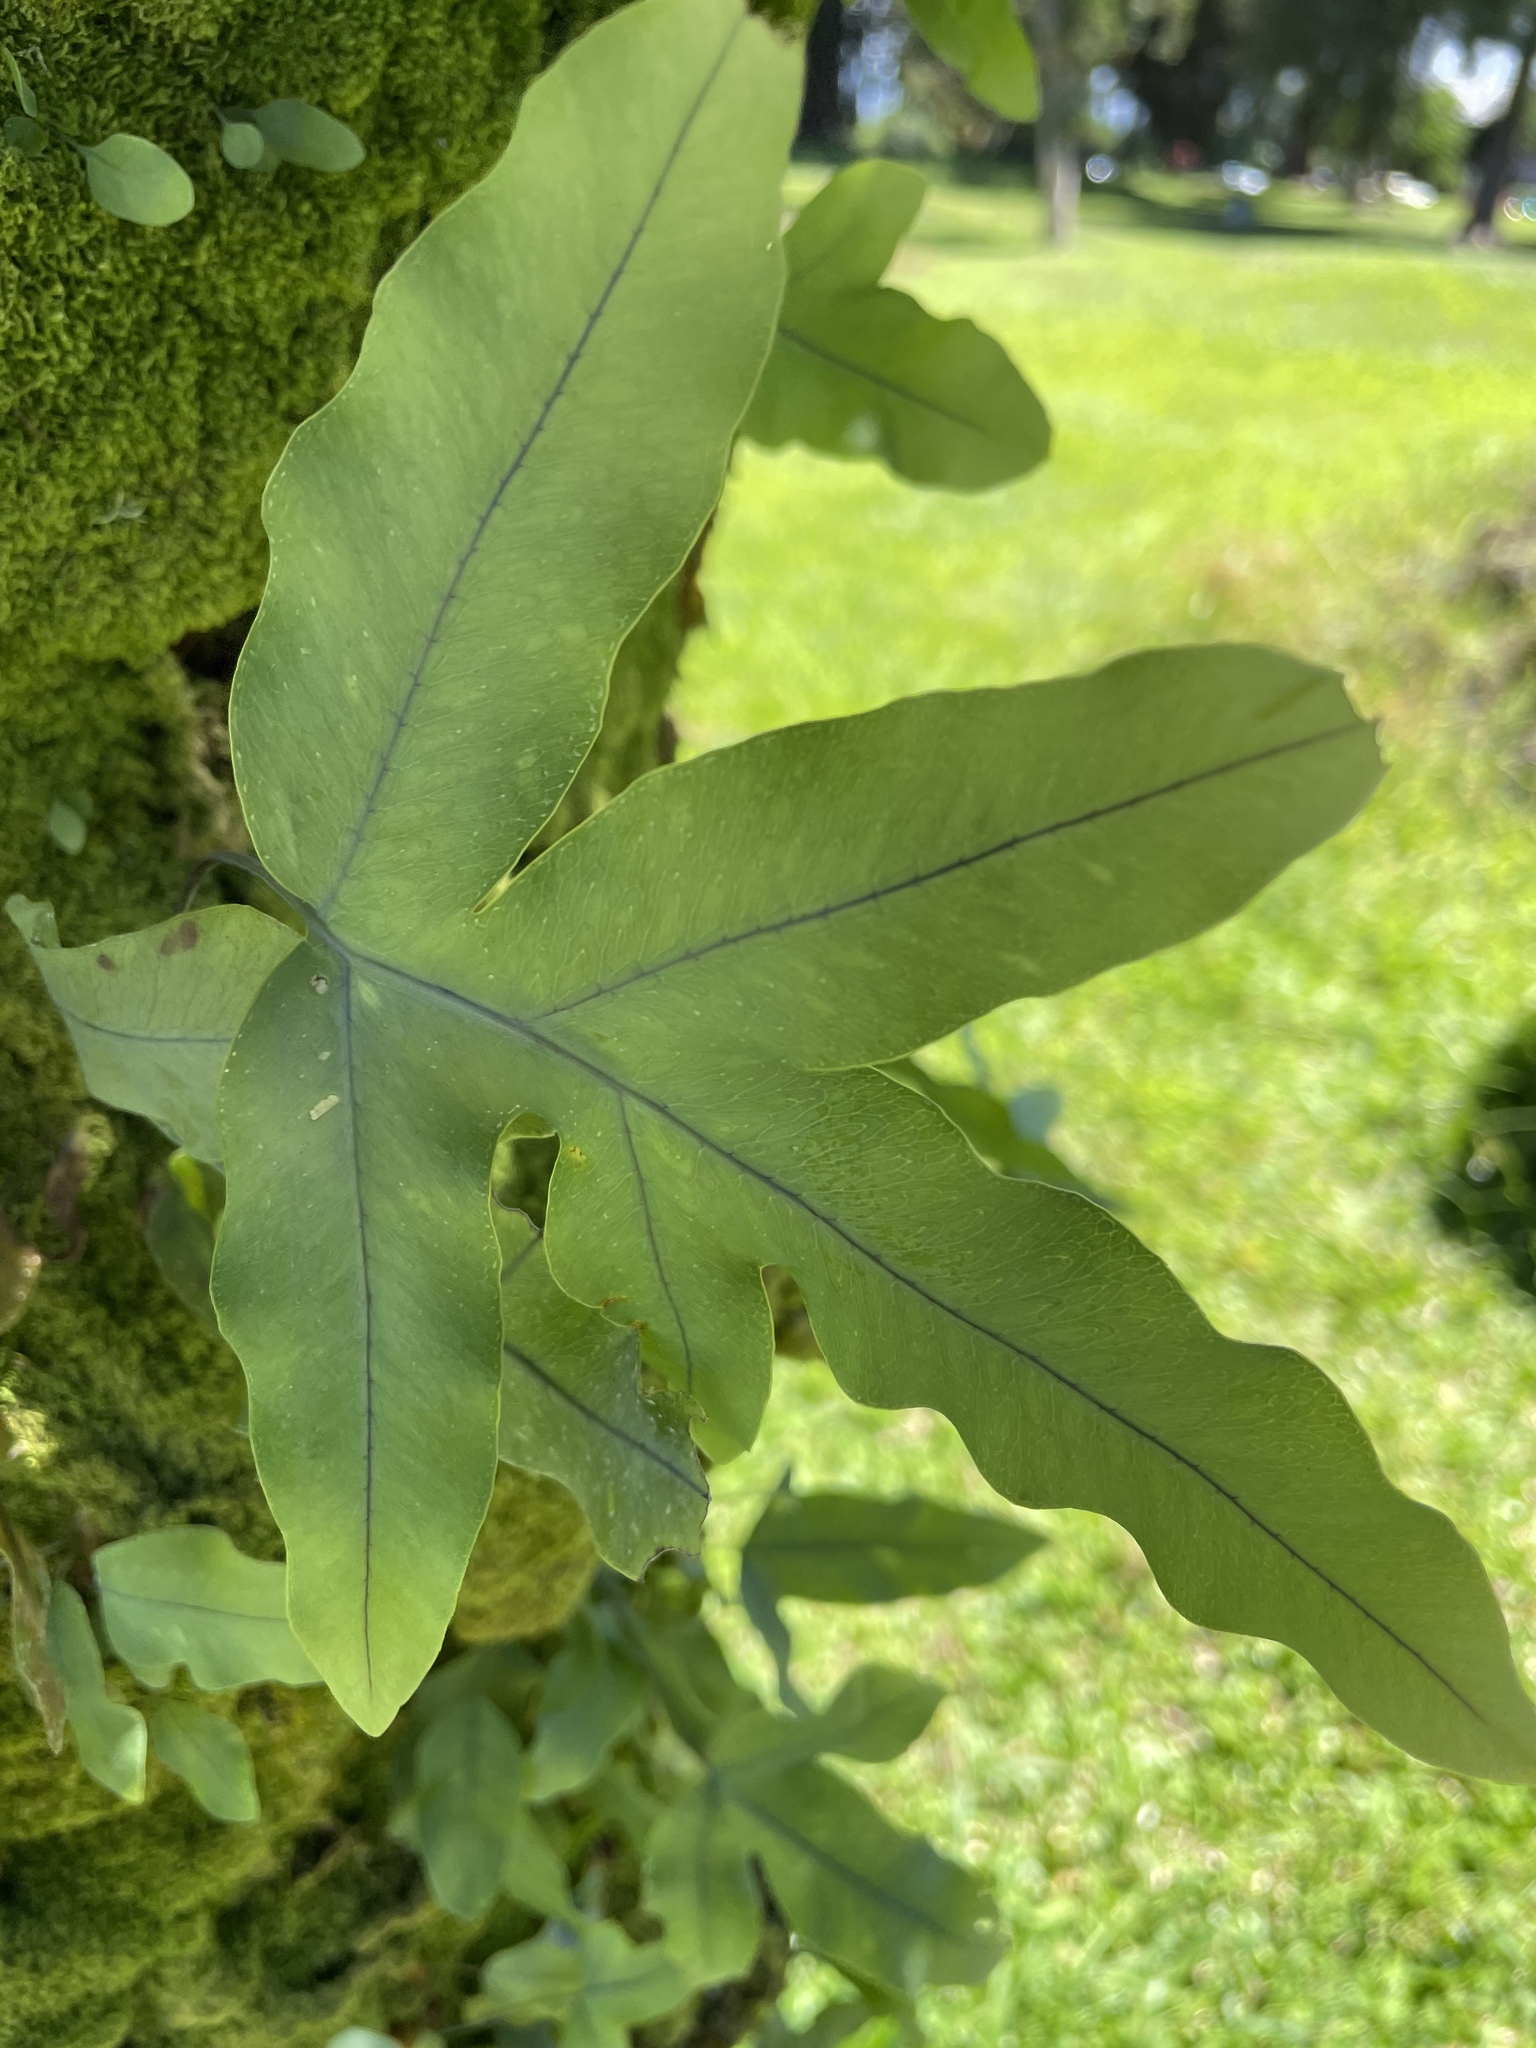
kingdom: Plantae
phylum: Tracheophyta
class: Polypodiopsida
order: Polypodiales
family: Polypodiaceae
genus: Phlebodium
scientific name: Phlebodium aureum
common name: Gold-foot fern
